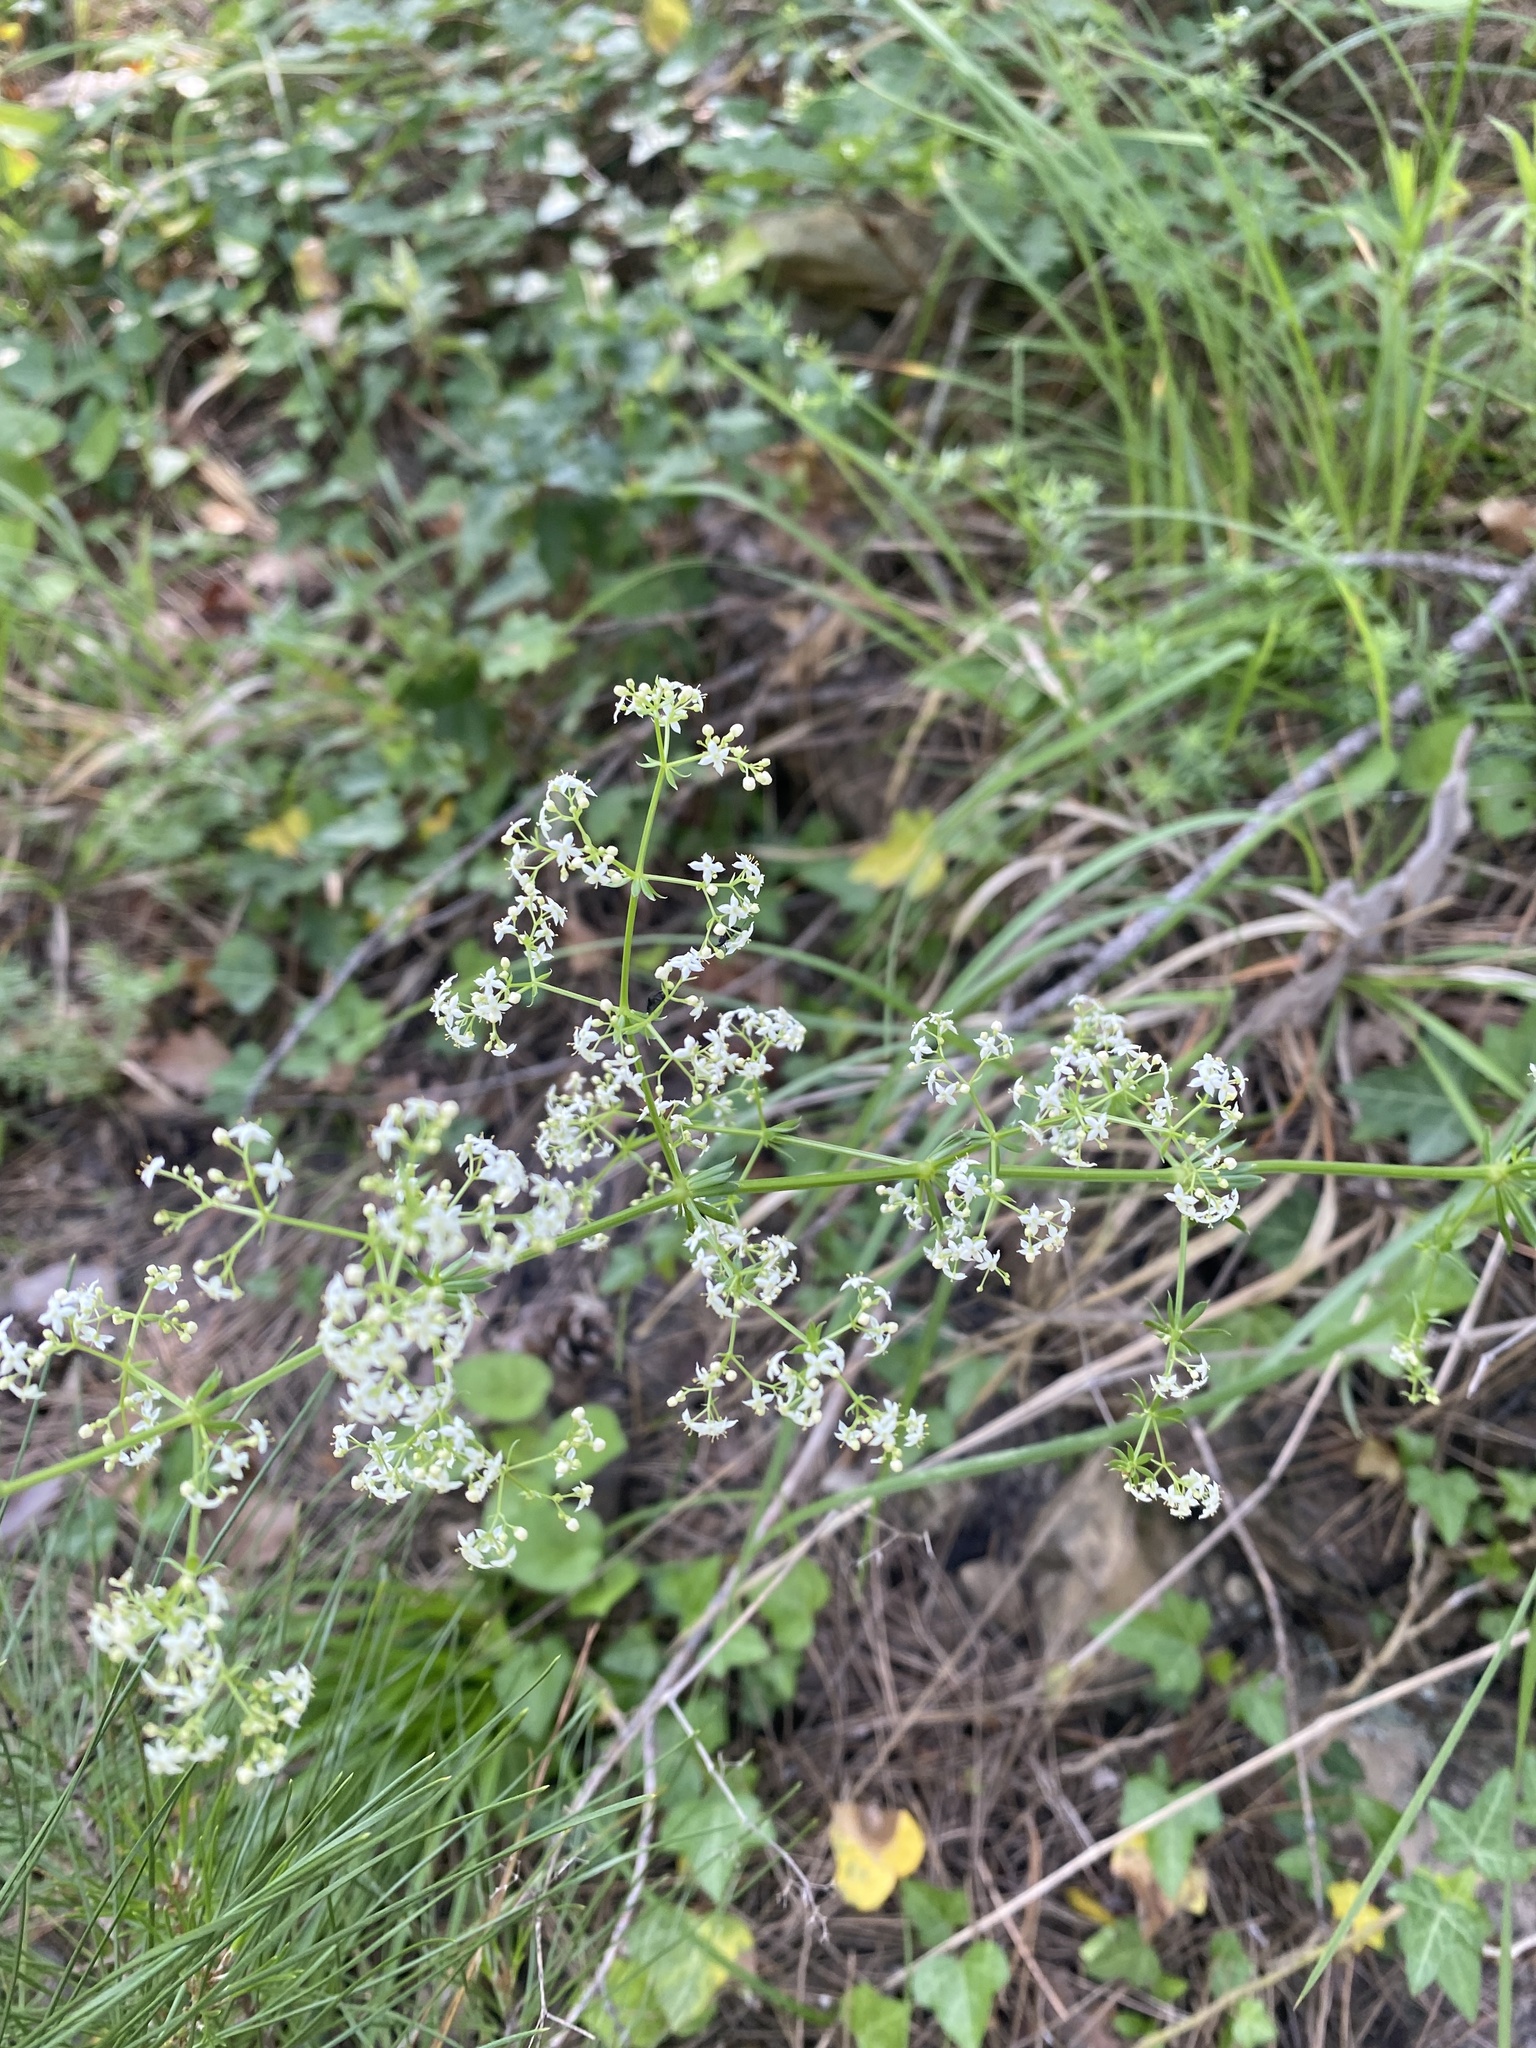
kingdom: Plantae
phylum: Tracheophyta
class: Magnoliopsida
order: Gentianales
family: Rubiaceae
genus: Galium
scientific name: Galium mollugo
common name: Hedge bedstraw
